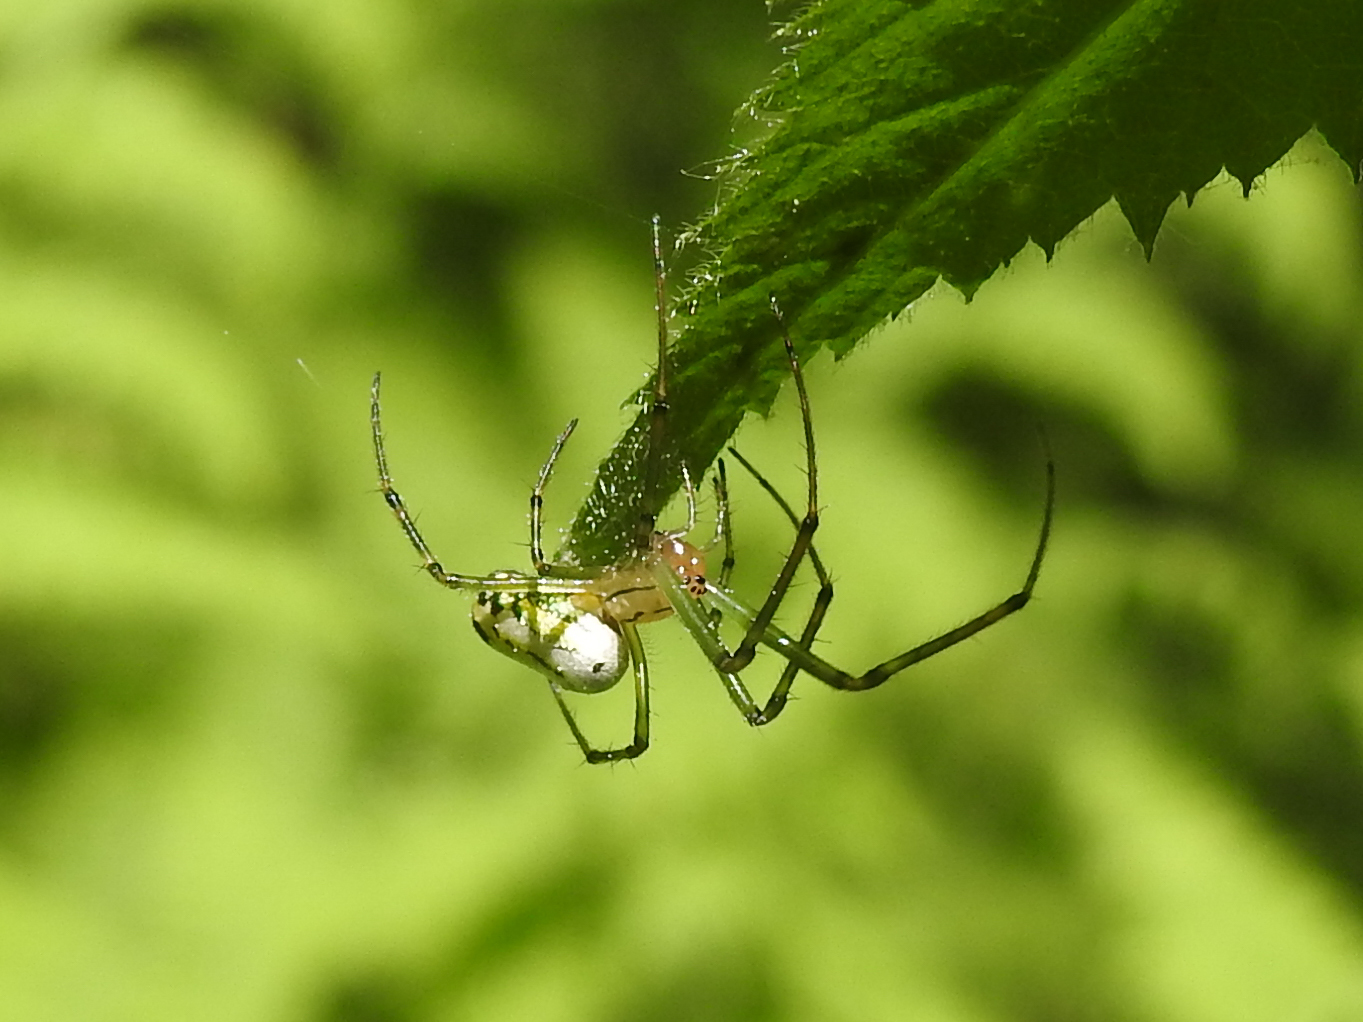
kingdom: Animalia
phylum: Arthropoda
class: Arachnida
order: Araneae
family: Tetragnathidae
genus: Leucauge
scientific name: Leucauge venusta
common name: Longjawed orb weavers
